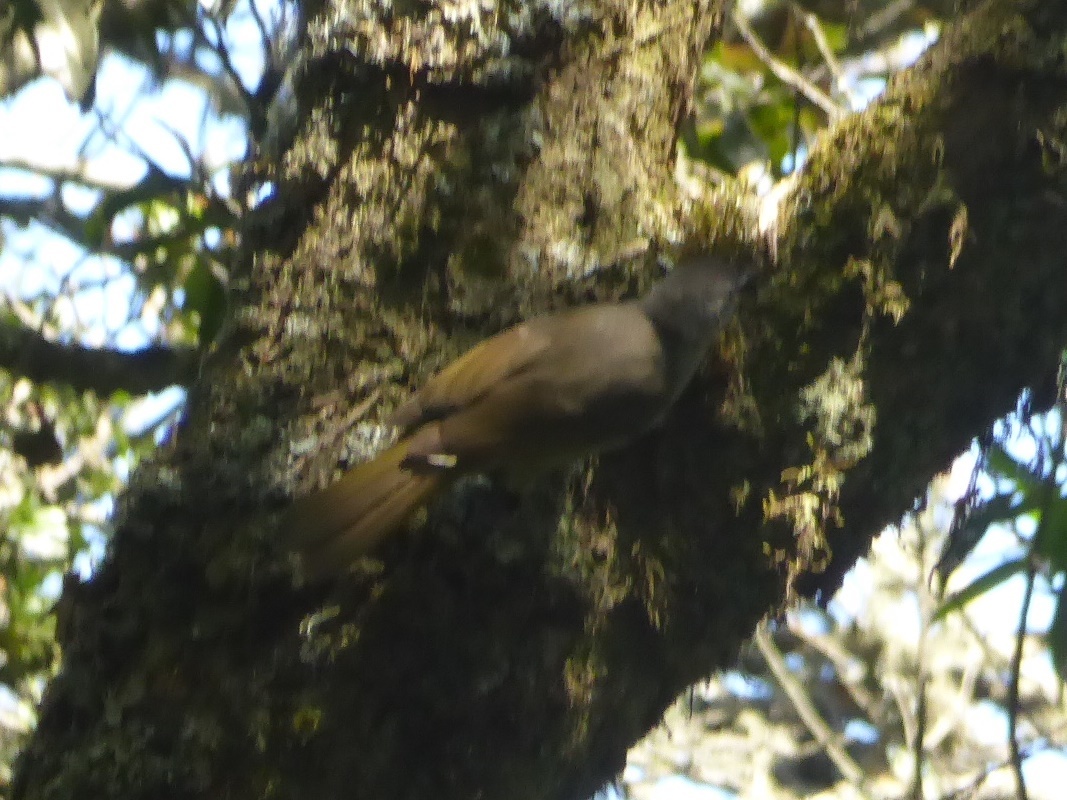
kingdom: Animalia
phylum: Chordata
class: Aves
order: Passeriformes
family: Pycnonotidae
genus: Phyllastrephus
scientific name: Phyllastrephus flavostriatus
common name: Yellow-streaked greenbul
